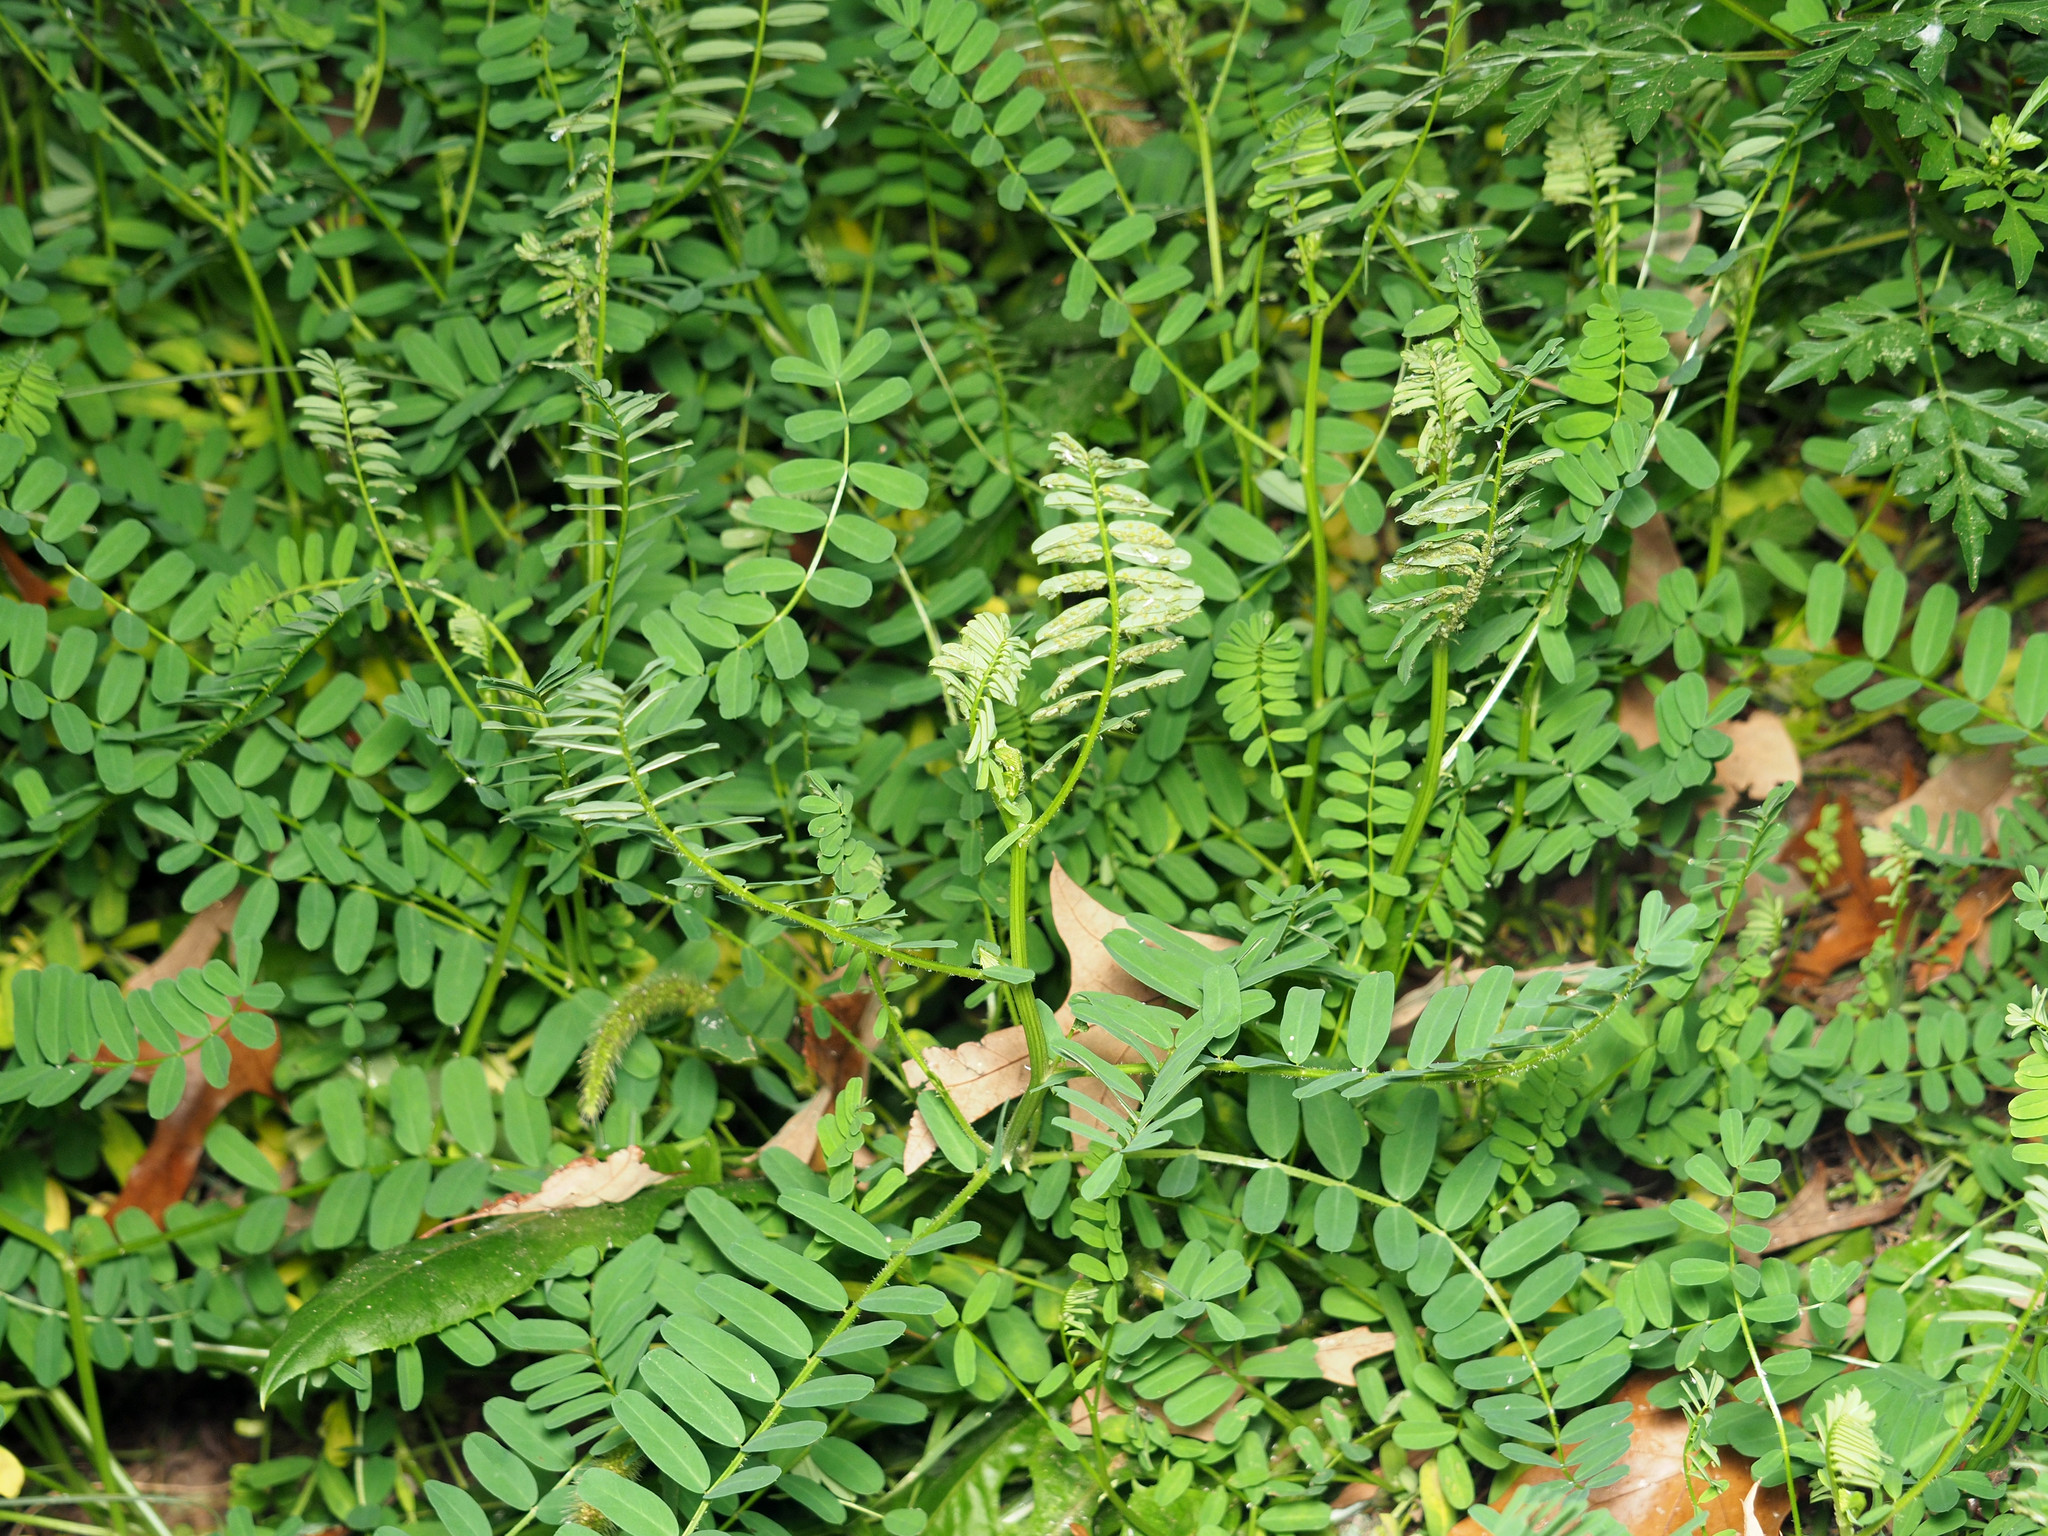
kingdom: Plantae
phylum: Tracheophyta
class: Magnoliopsida
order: Fabales
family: Fabaceae
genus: Coronilla
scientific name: Coronilla varia
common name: Crownvetch
